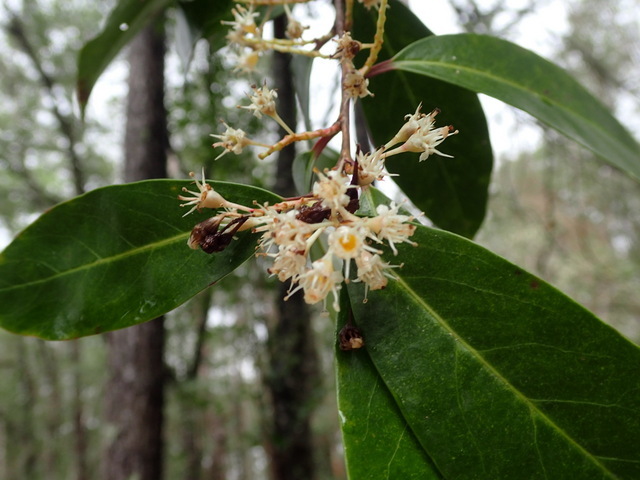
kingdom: Plantae
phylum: Tracheophyta
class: Magnoliopsida
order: Rosales
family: Rosaceae
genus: Prunus
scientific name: Prunus caroliniana
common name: Carolina laurel cherry
